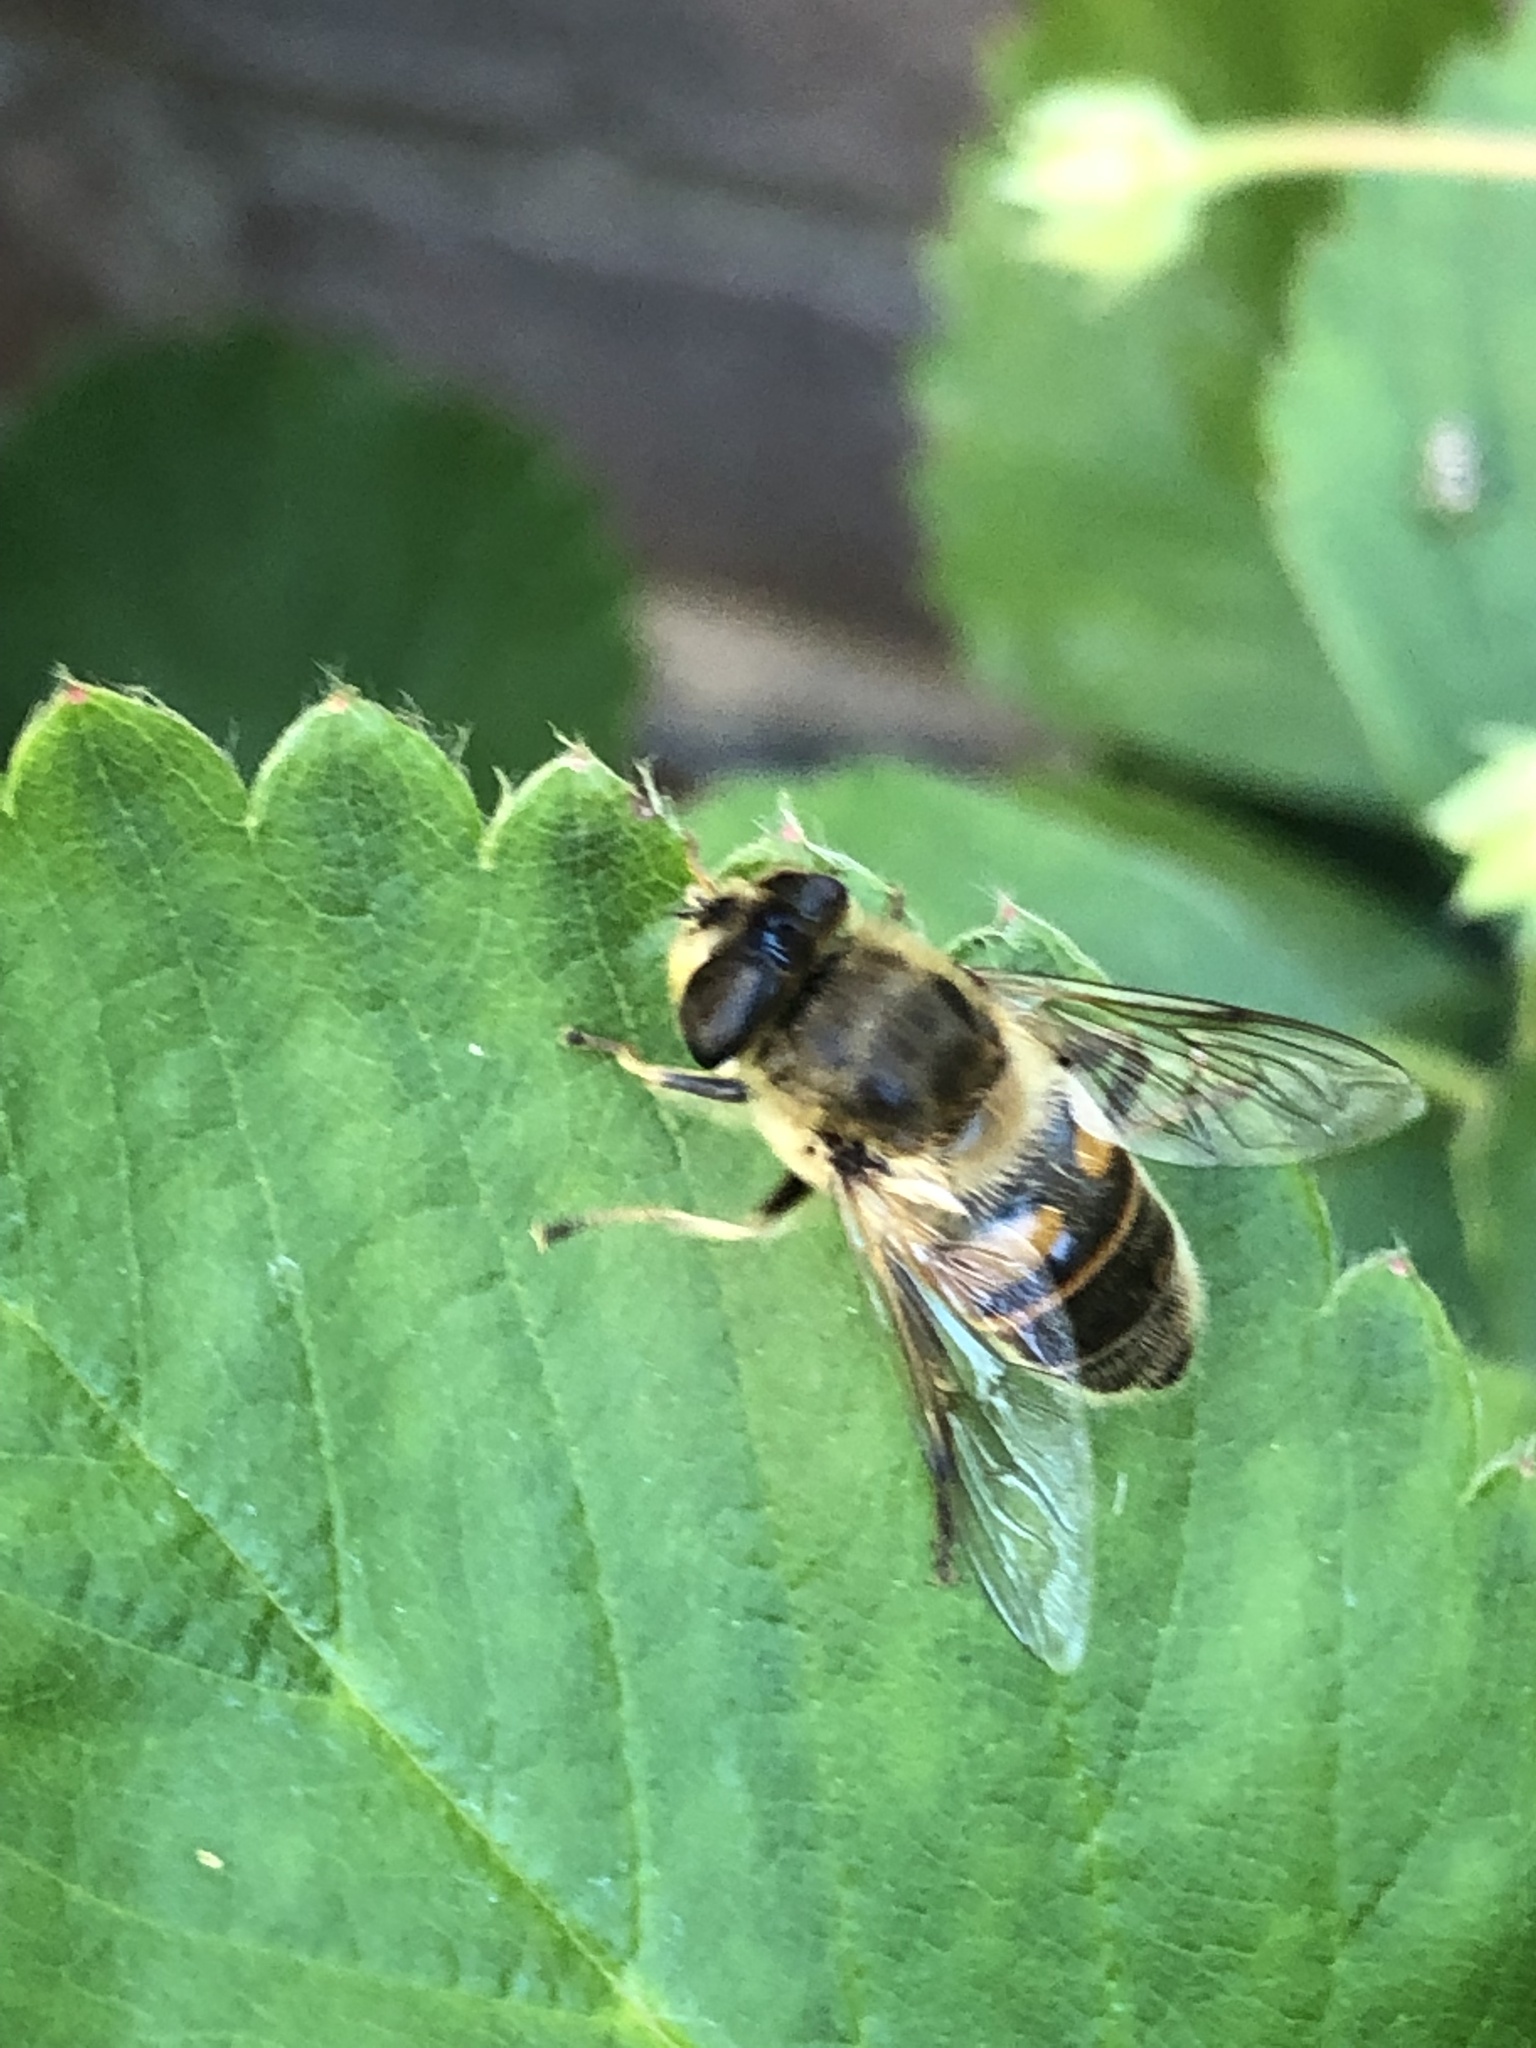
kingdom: Animalia
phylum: Arthropoda
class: Insecta
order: Diptera
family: Syrphidae
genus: Eristalis
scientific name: Eristalis tenax
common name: Drone fly
